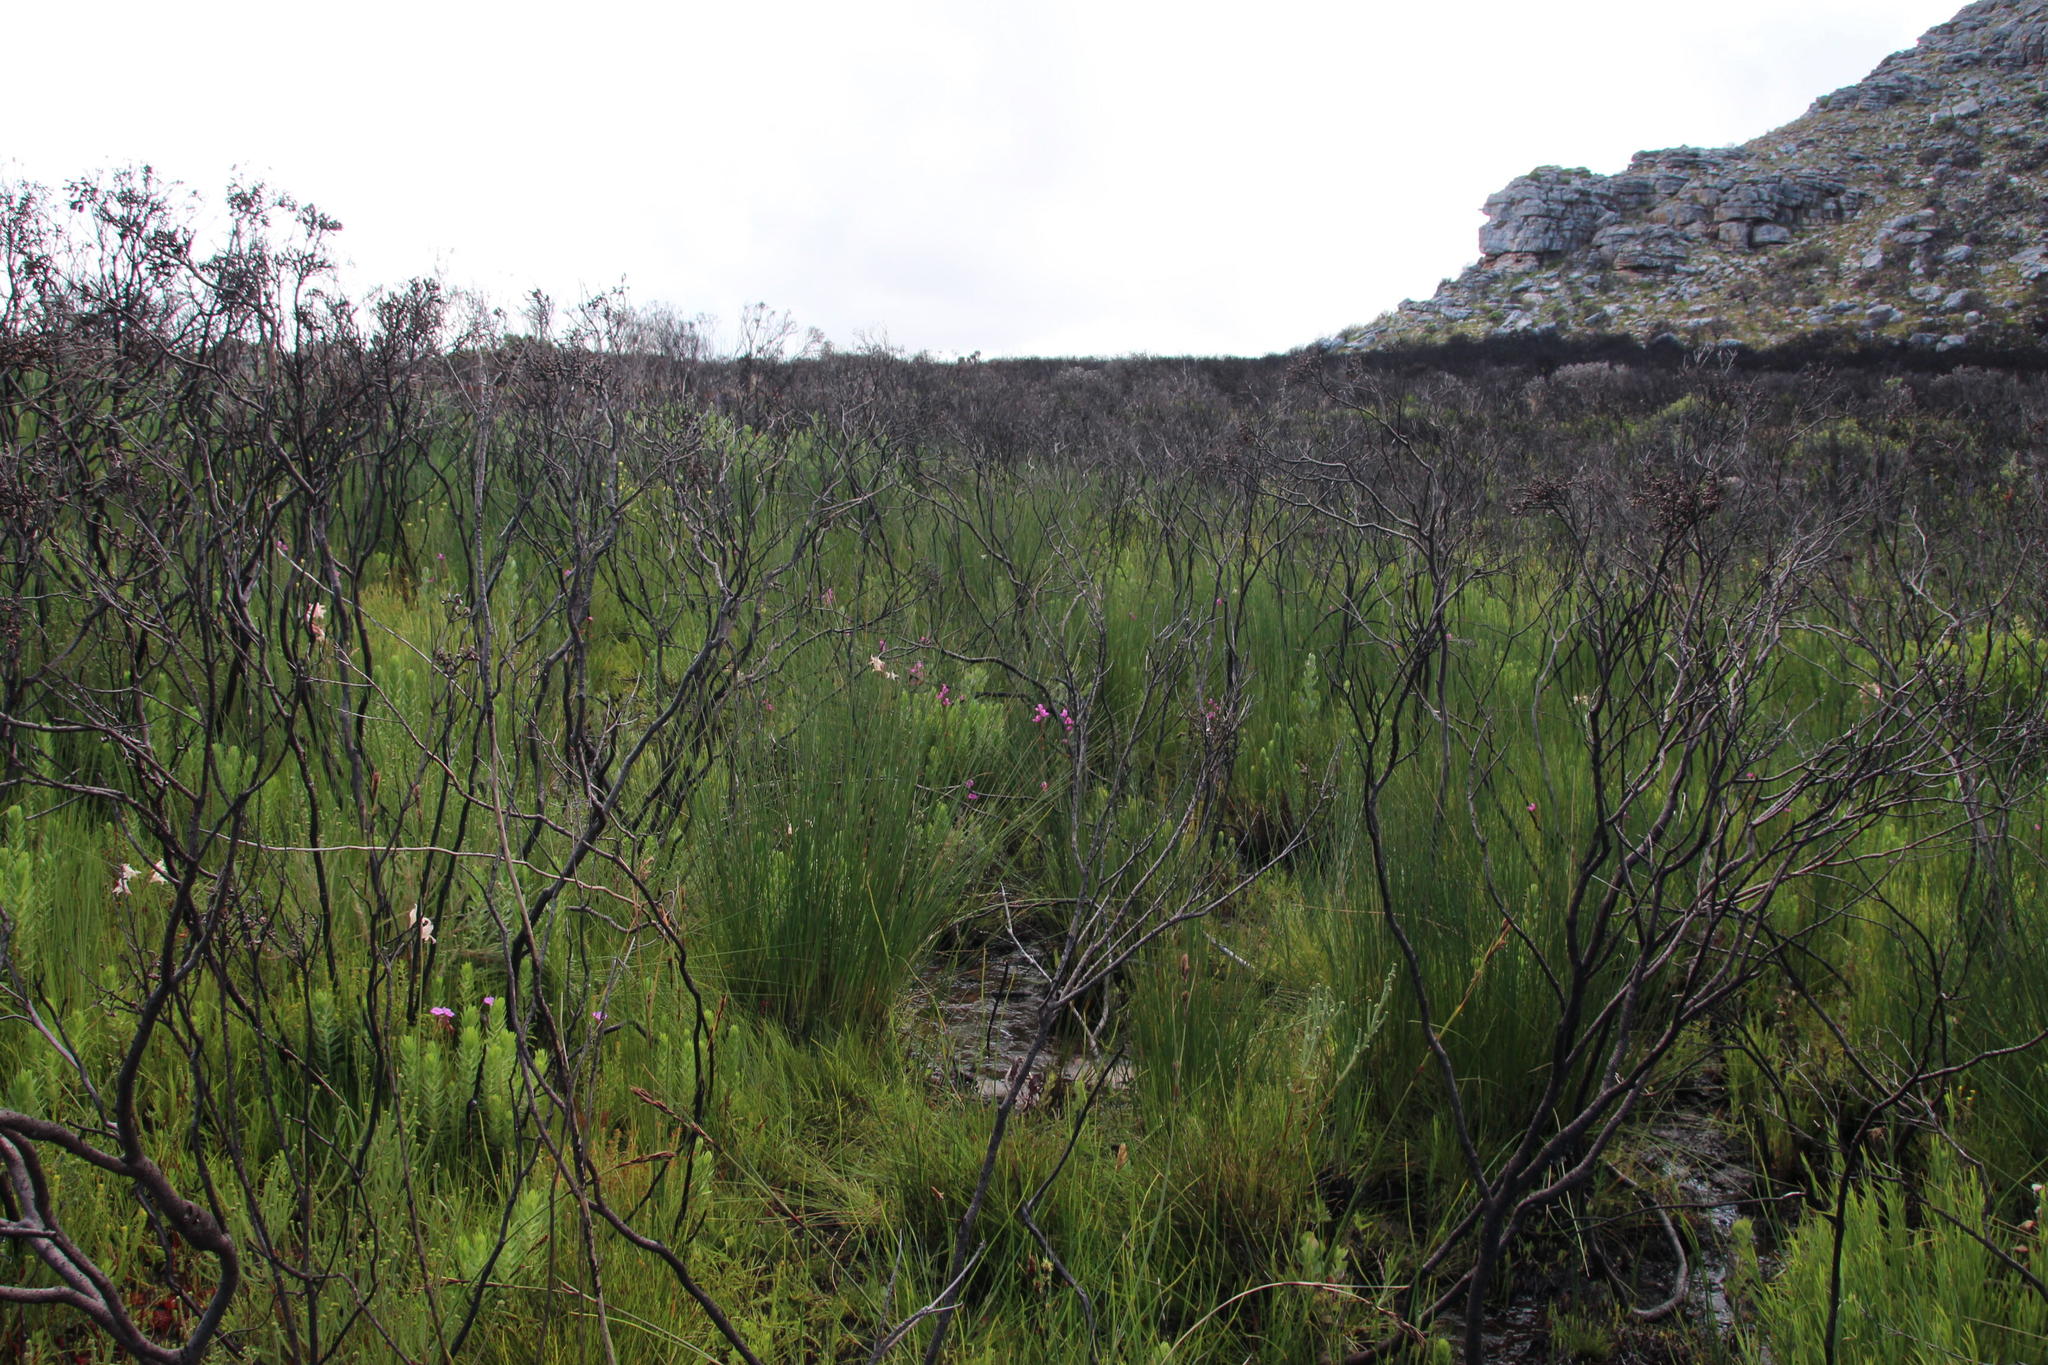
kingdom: Plantae
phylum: Tracheophyta
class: Liliopsida
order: Asparagales
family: Orchidaceae
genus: Disa
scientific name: Disa racemosa
